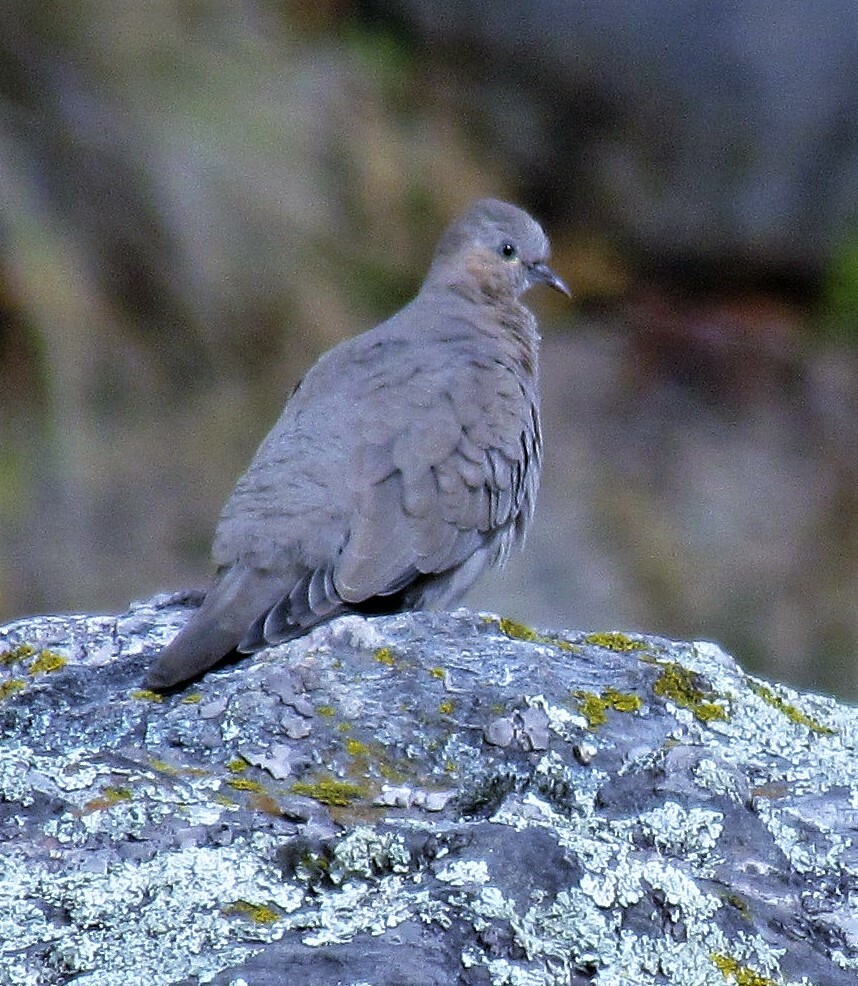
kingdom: Animalia
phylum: Chordata
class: Aves
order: Columbiformes
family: Columbidae
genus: Metriopelia
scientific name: Metriopelia melanoptera
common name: Black-winged ground dove
